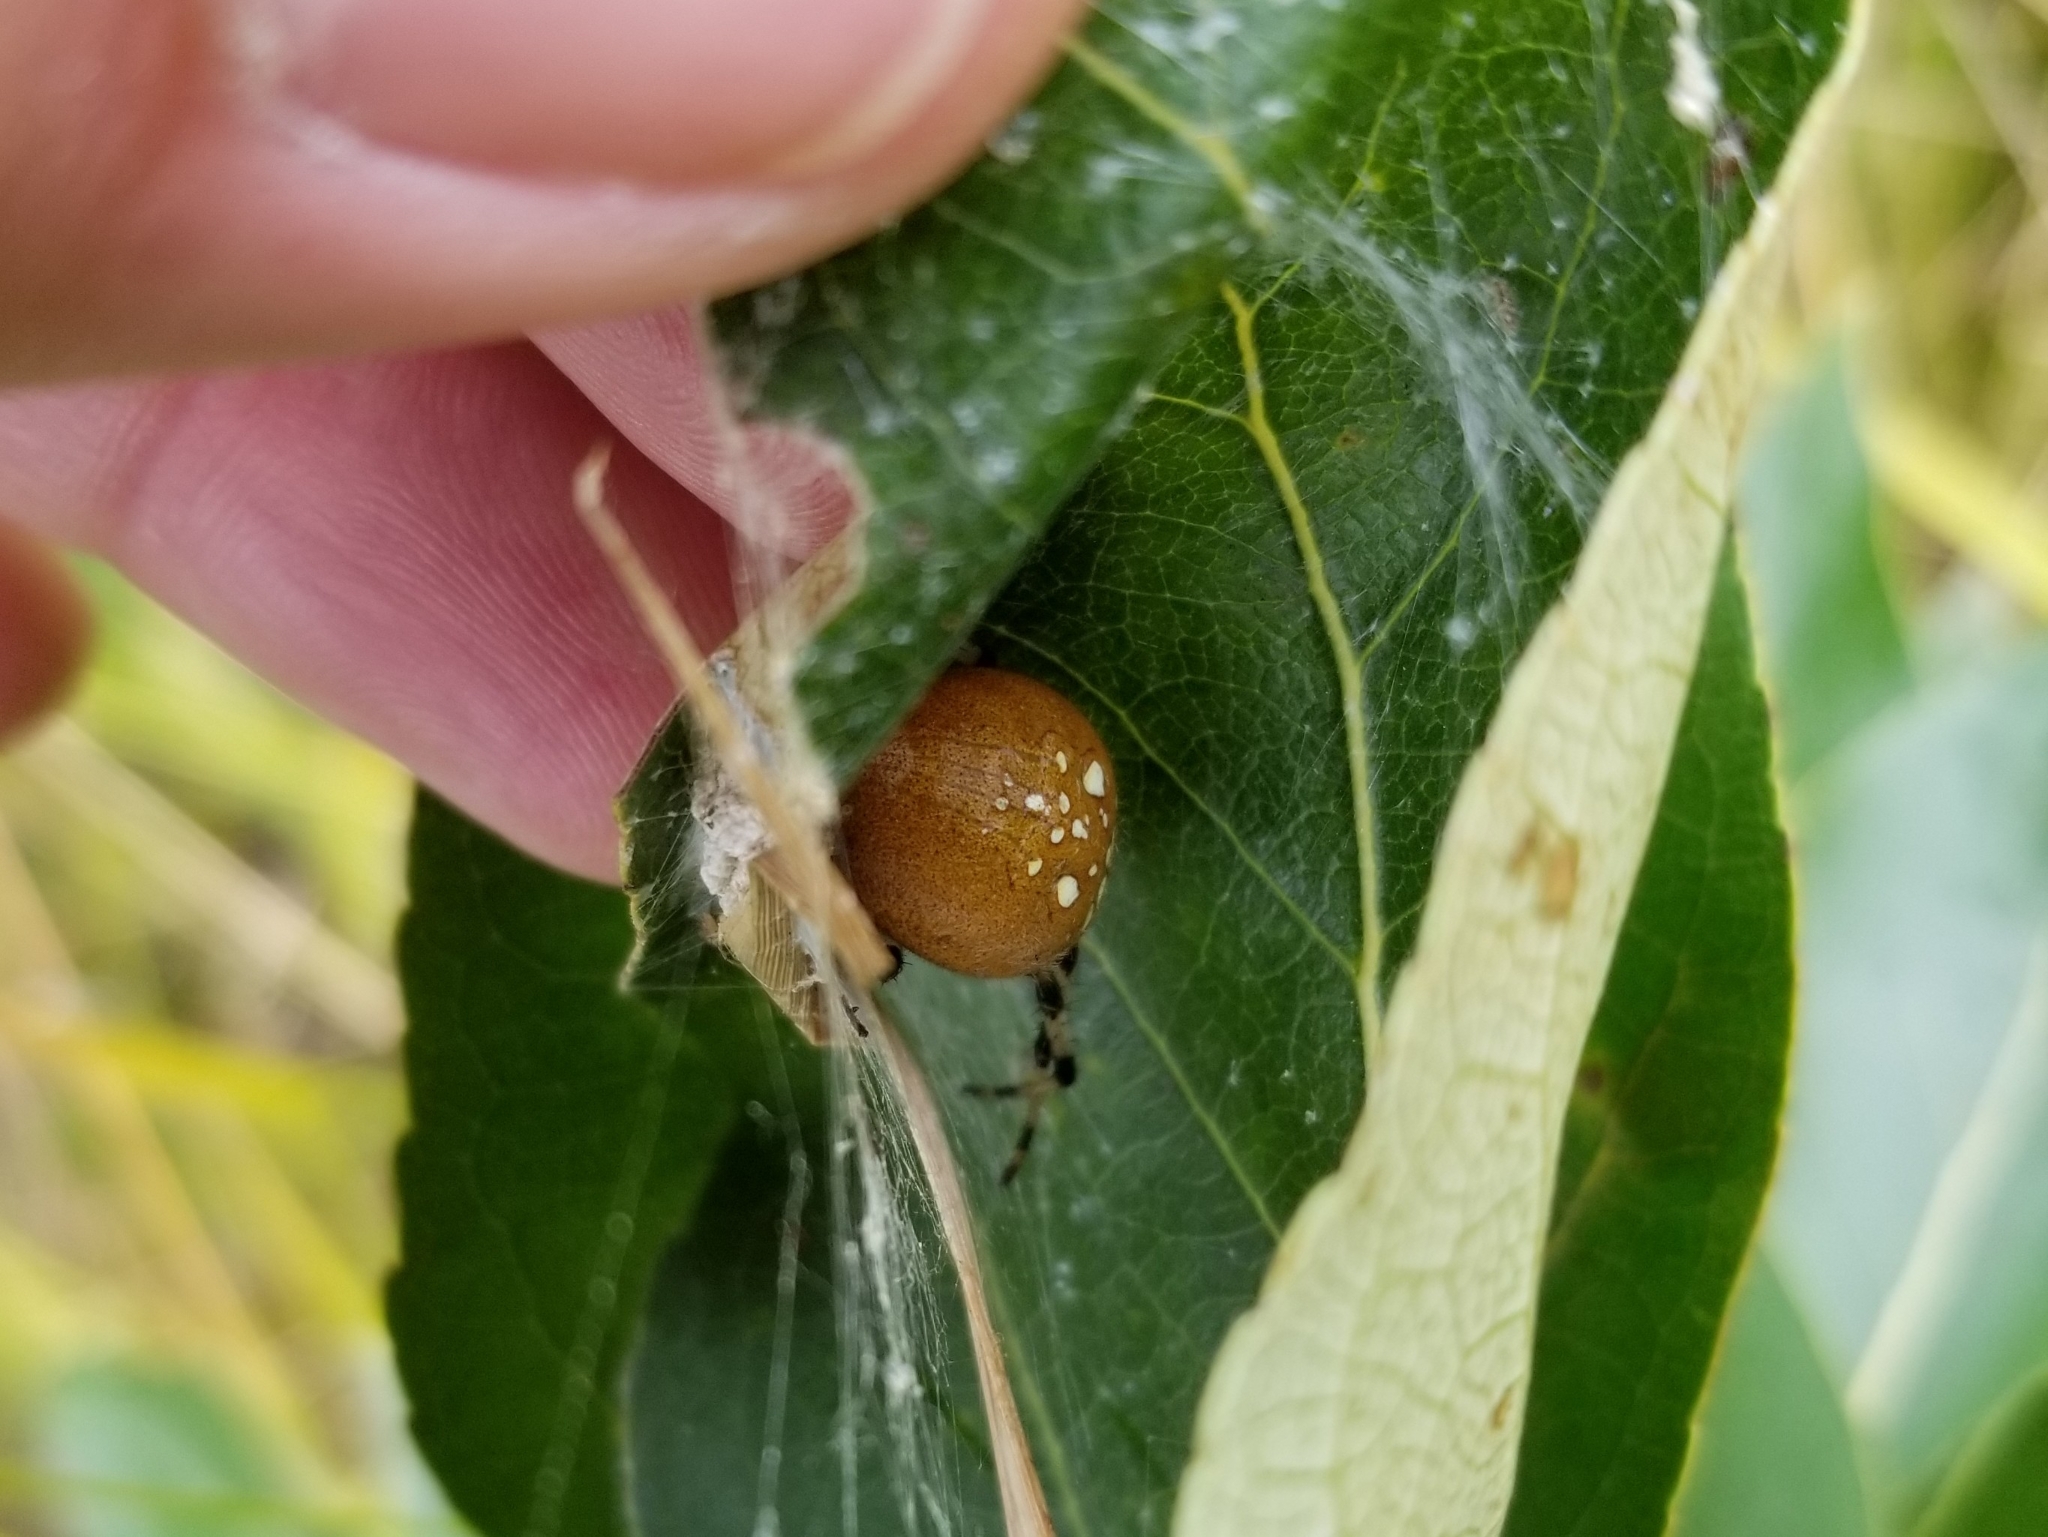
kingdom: Animalia
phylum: Arthropoda
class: Arachnida
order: Araneae
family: Araneidae
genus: Araneus
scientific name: Araneus trifolium
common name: Shamrock orbweaver
